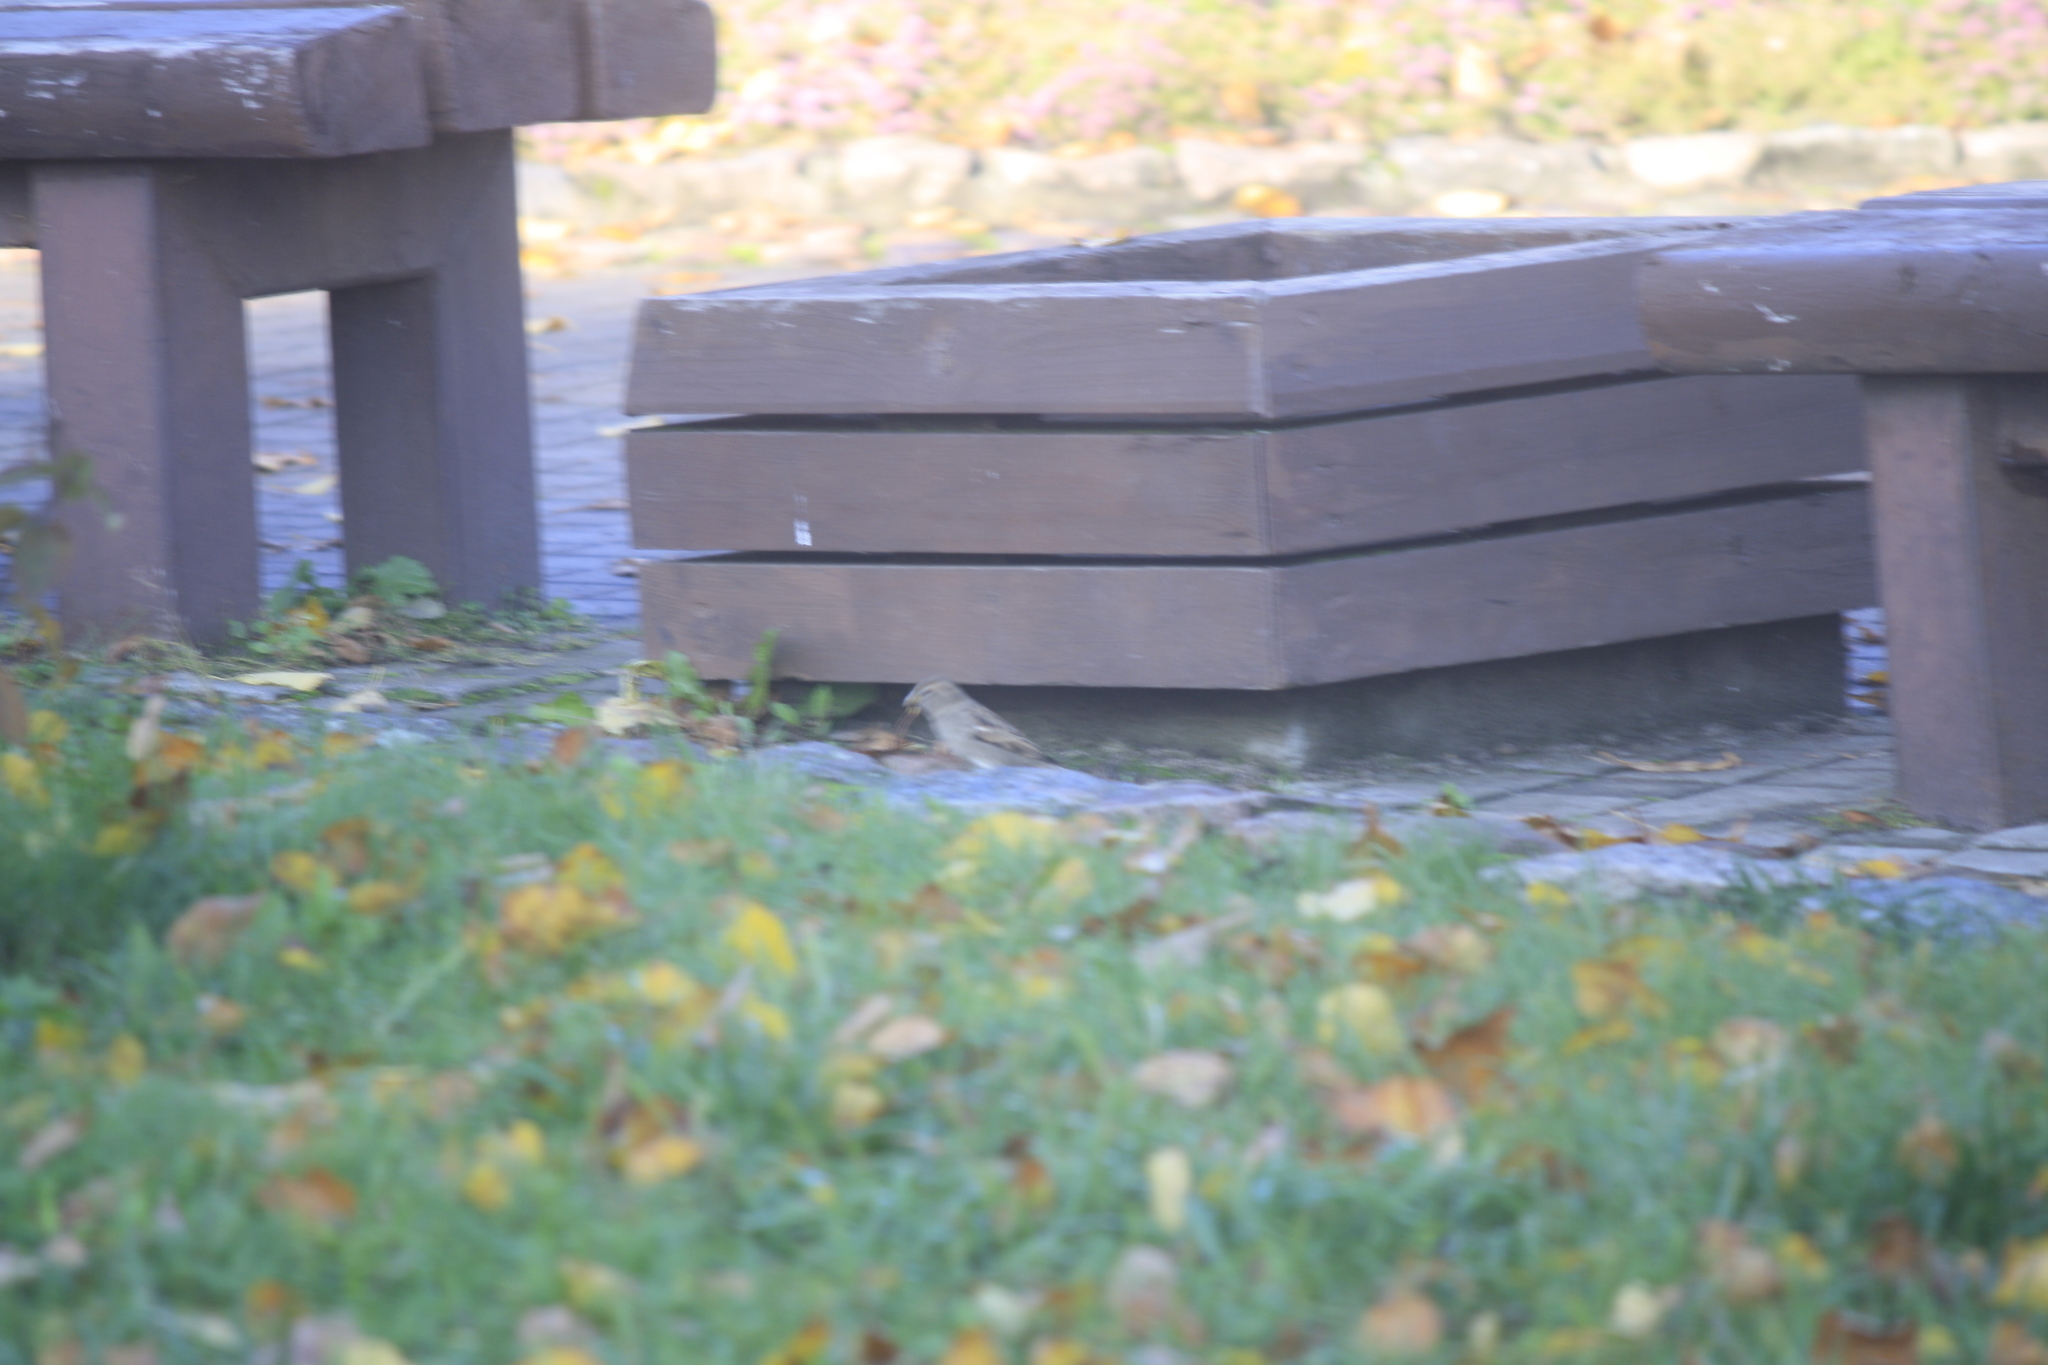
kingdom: Animalia
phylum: Chordata
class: Aves
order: Passeriformes
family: Passeridae
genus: Passer
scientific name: Passer domesticus
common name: House sparrow
